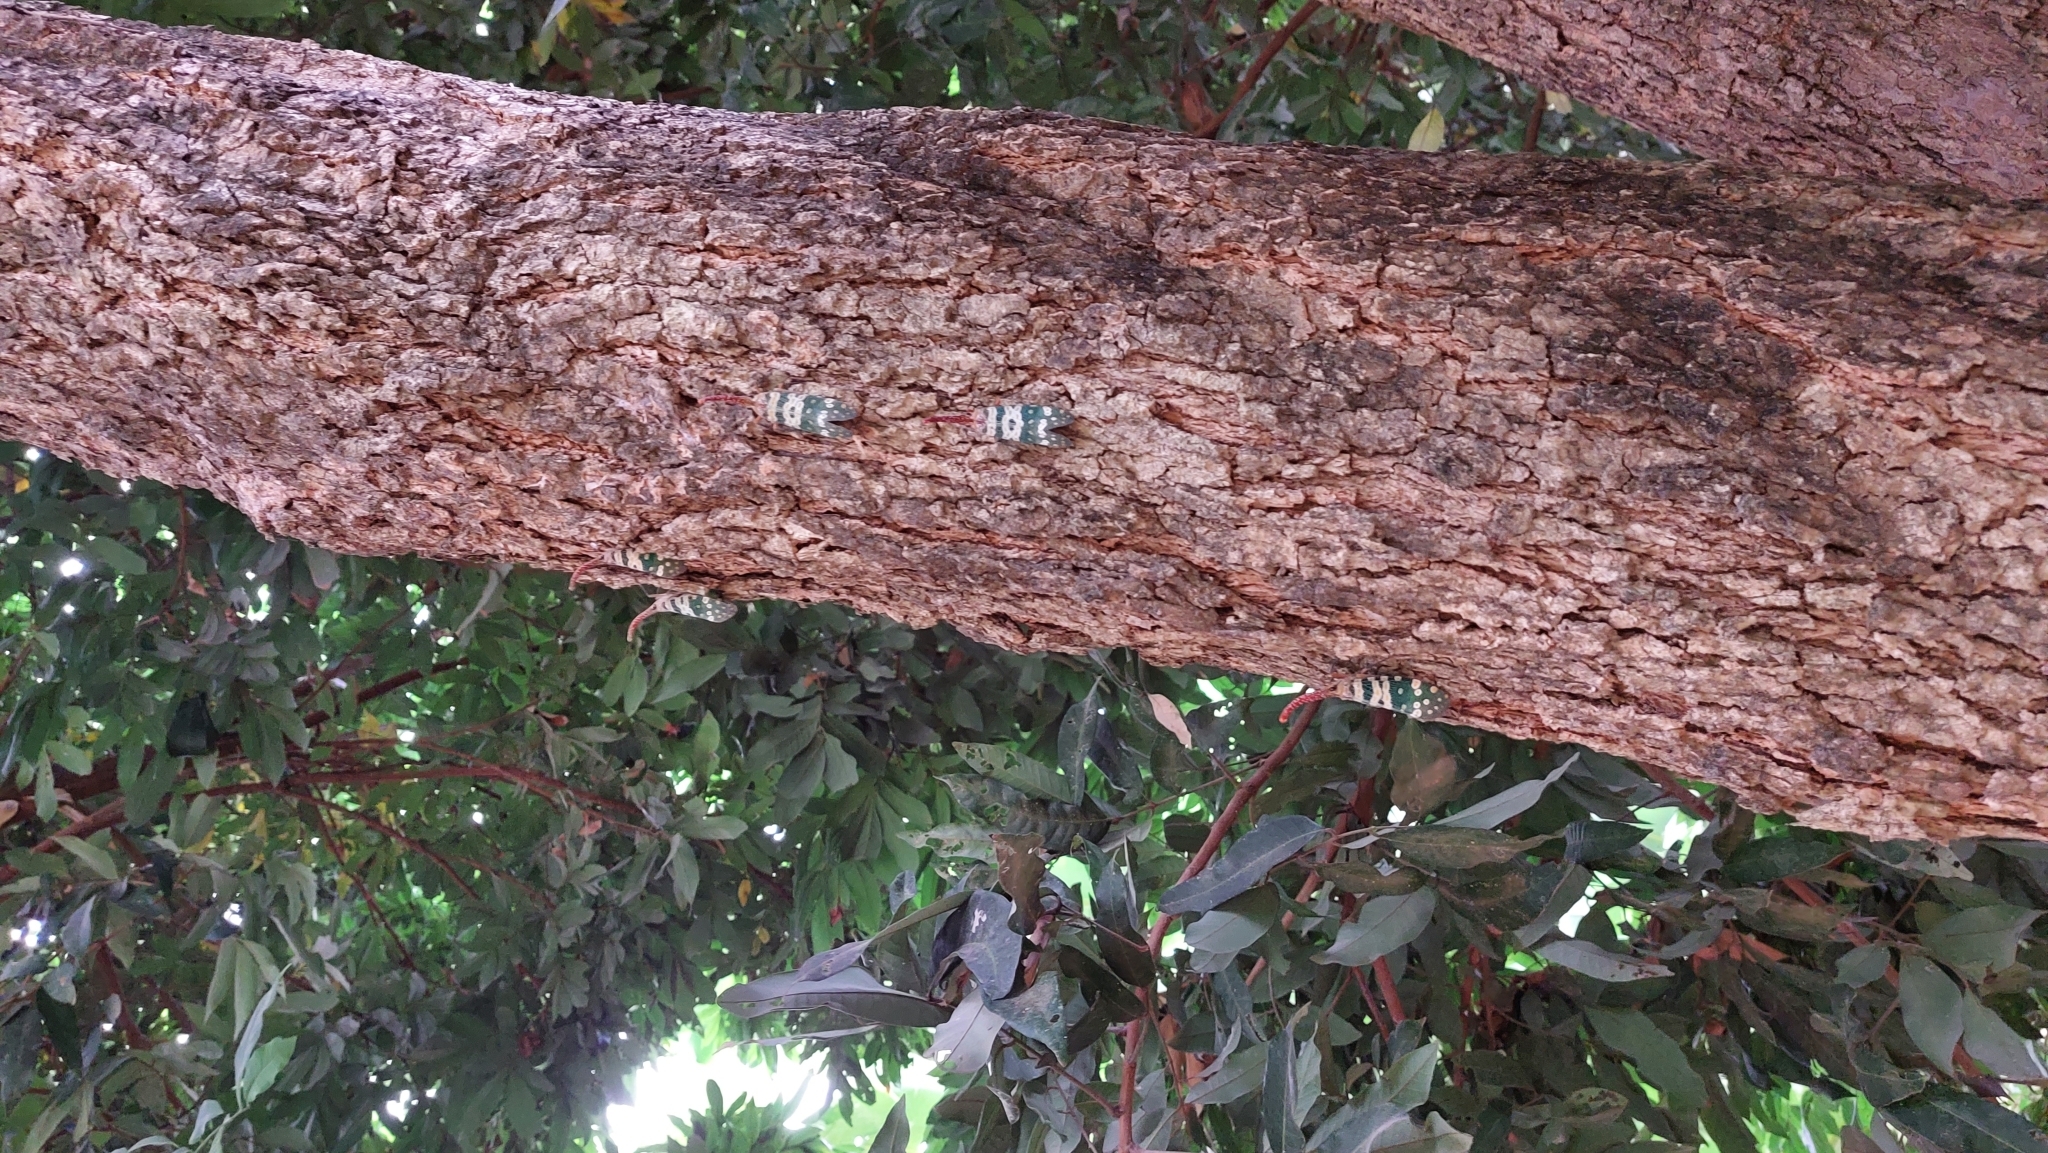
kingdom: Animalia
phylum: Arthropoda
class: Insecta
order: Hemiptera
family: Fulgoridae
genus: Pyrops
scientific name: Pyrops candelaria
